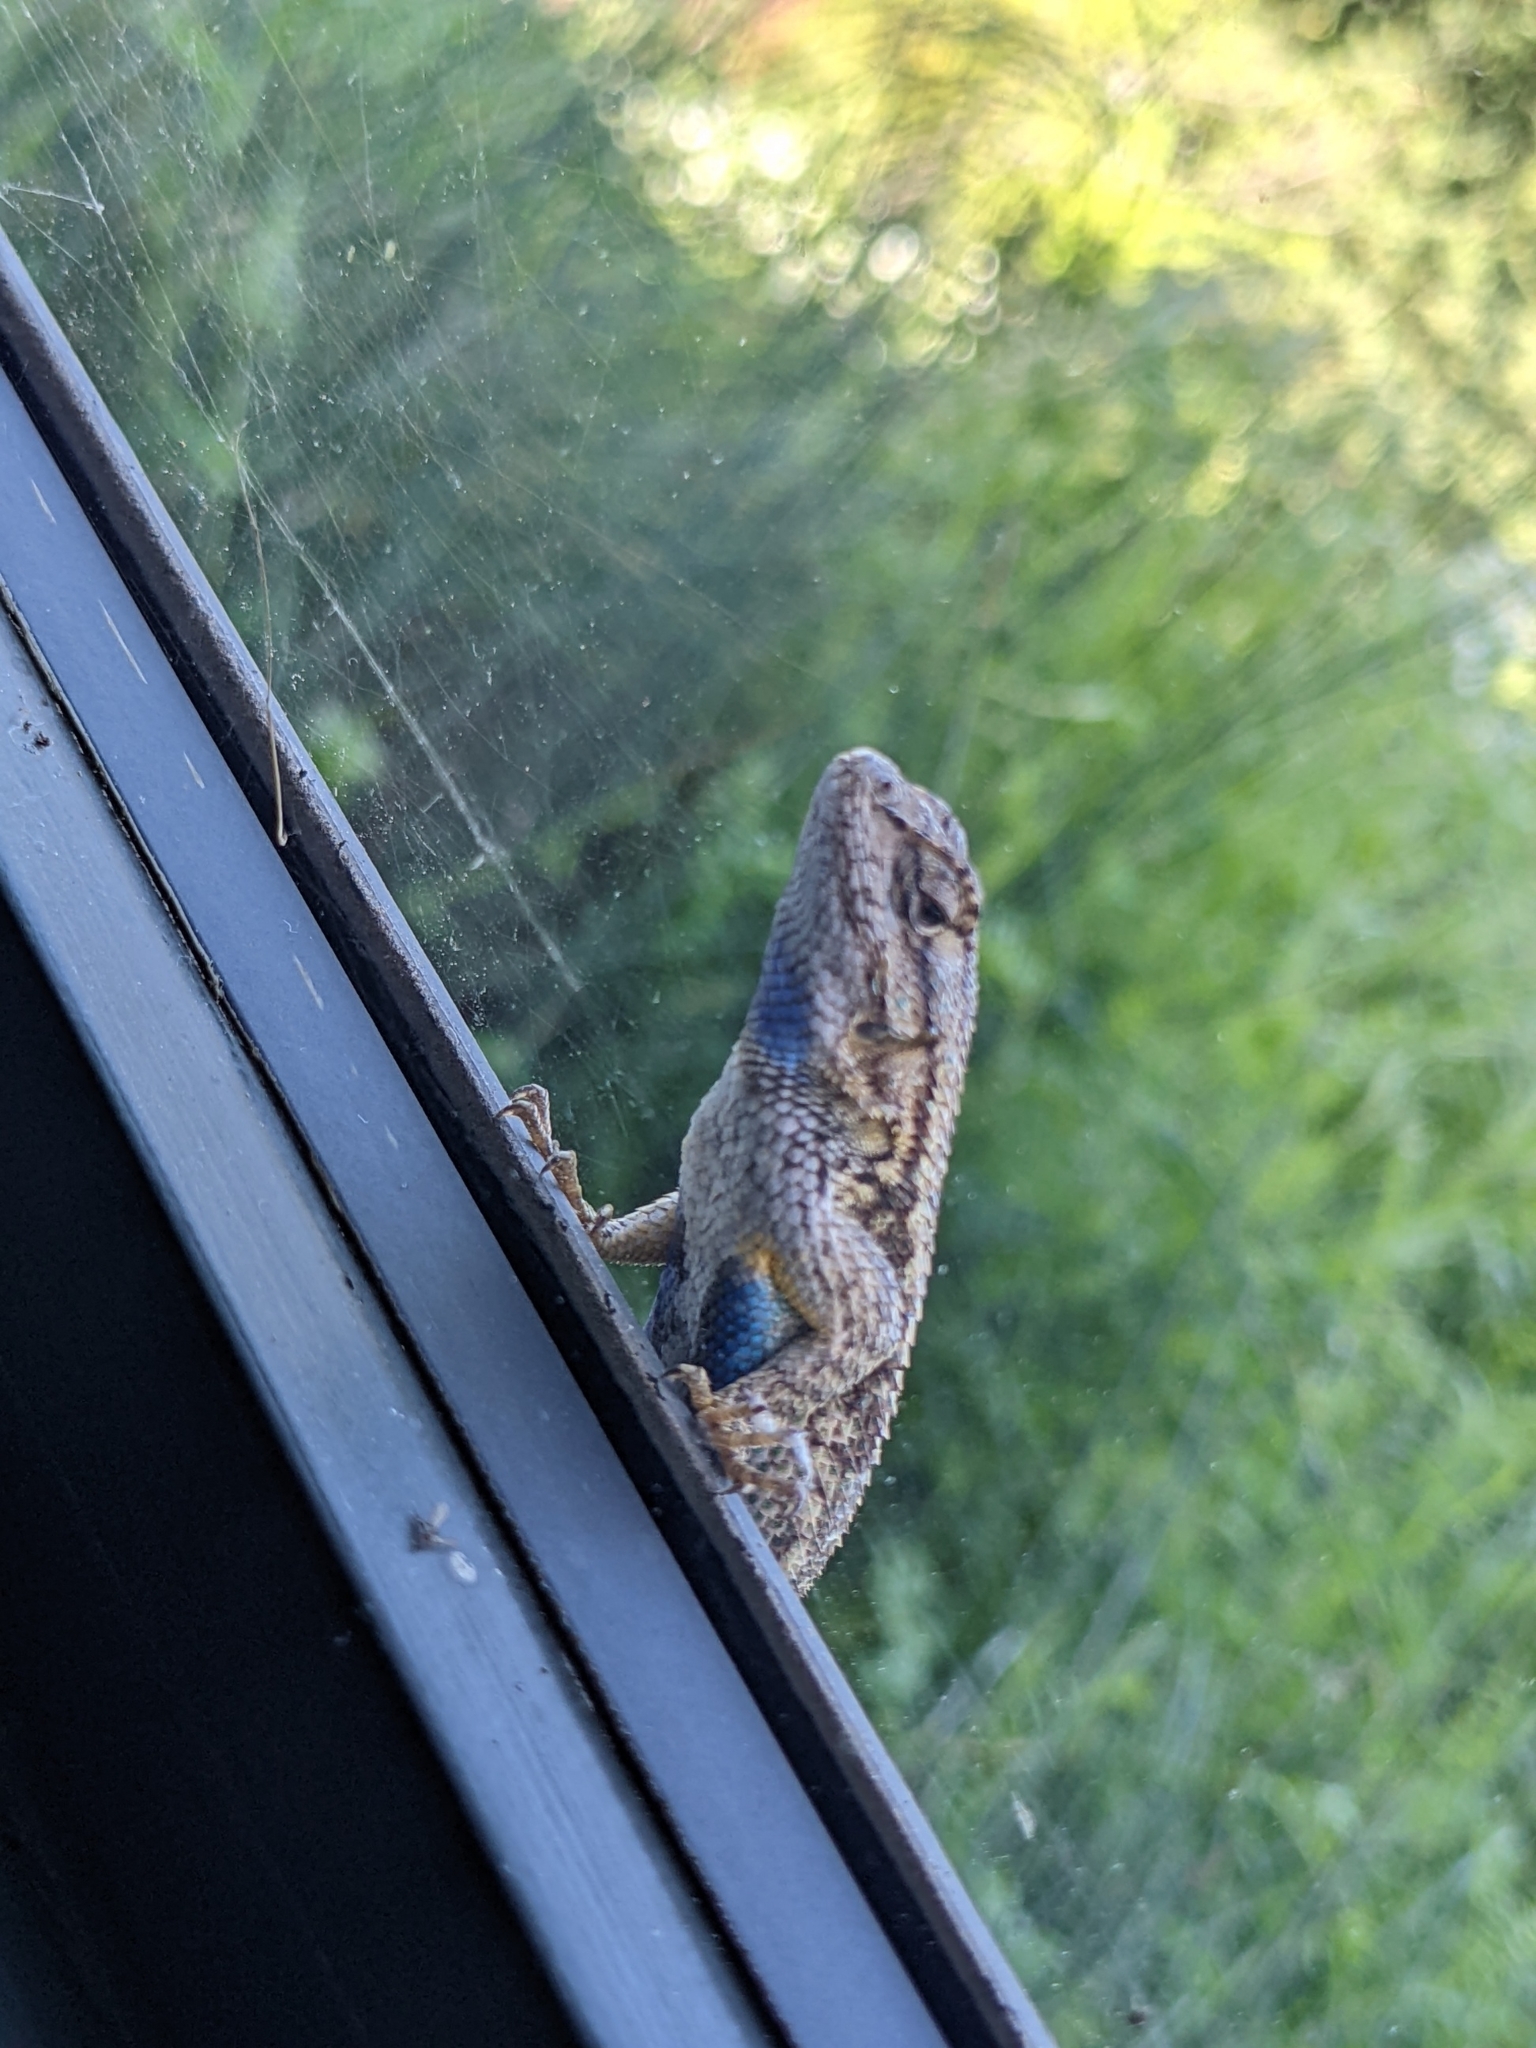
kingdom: Animalia
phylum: Chordata
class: Squamata
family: Phrynosomatidae
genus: Sceloporus
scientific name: Sceloporus occidentalis
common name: Western fence lizard
